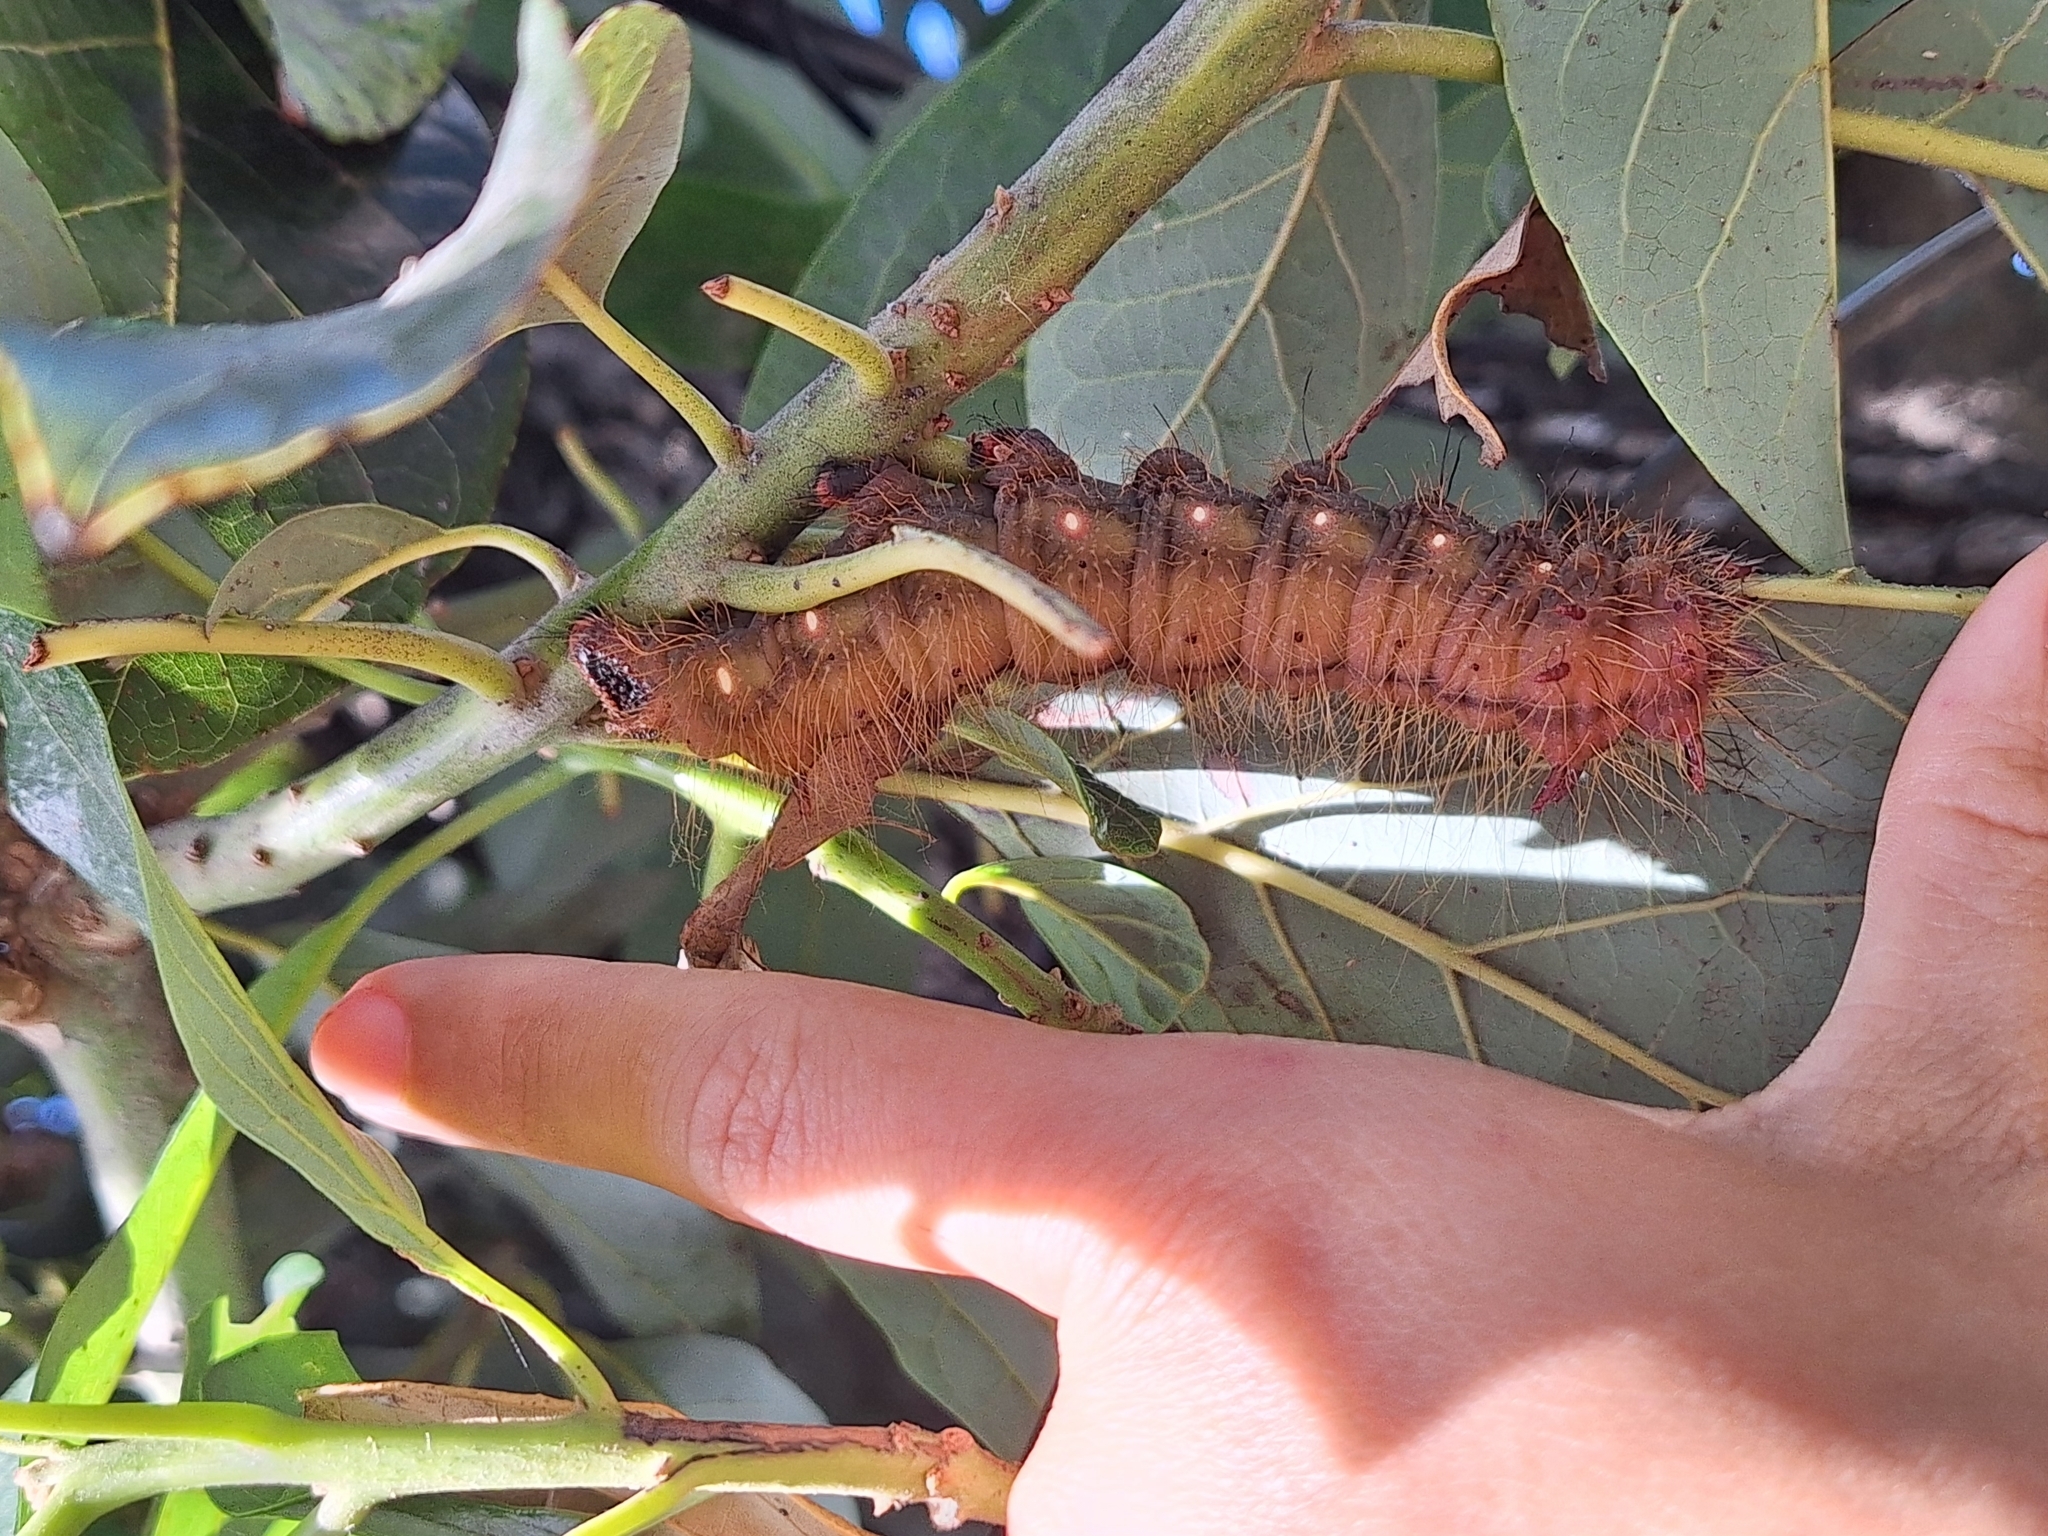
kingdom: Animalia
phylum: Arthropoda
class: Insecta
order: Lepidoptera
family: Saturniidae
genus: Eacles
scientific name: Eacles imperialis
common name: Imperial moth
